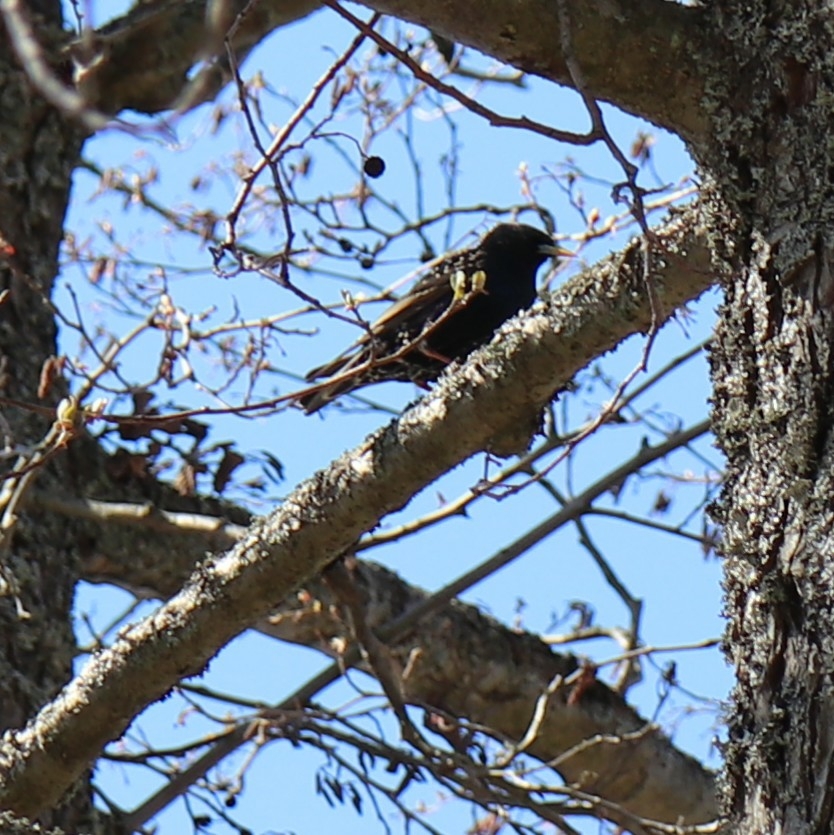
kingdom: Animalia
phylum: Chordata
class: Aves
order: Passeriformes
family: Sturnidae
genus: Sturnus
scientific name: Sturnus vulgaris
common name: Common starling
